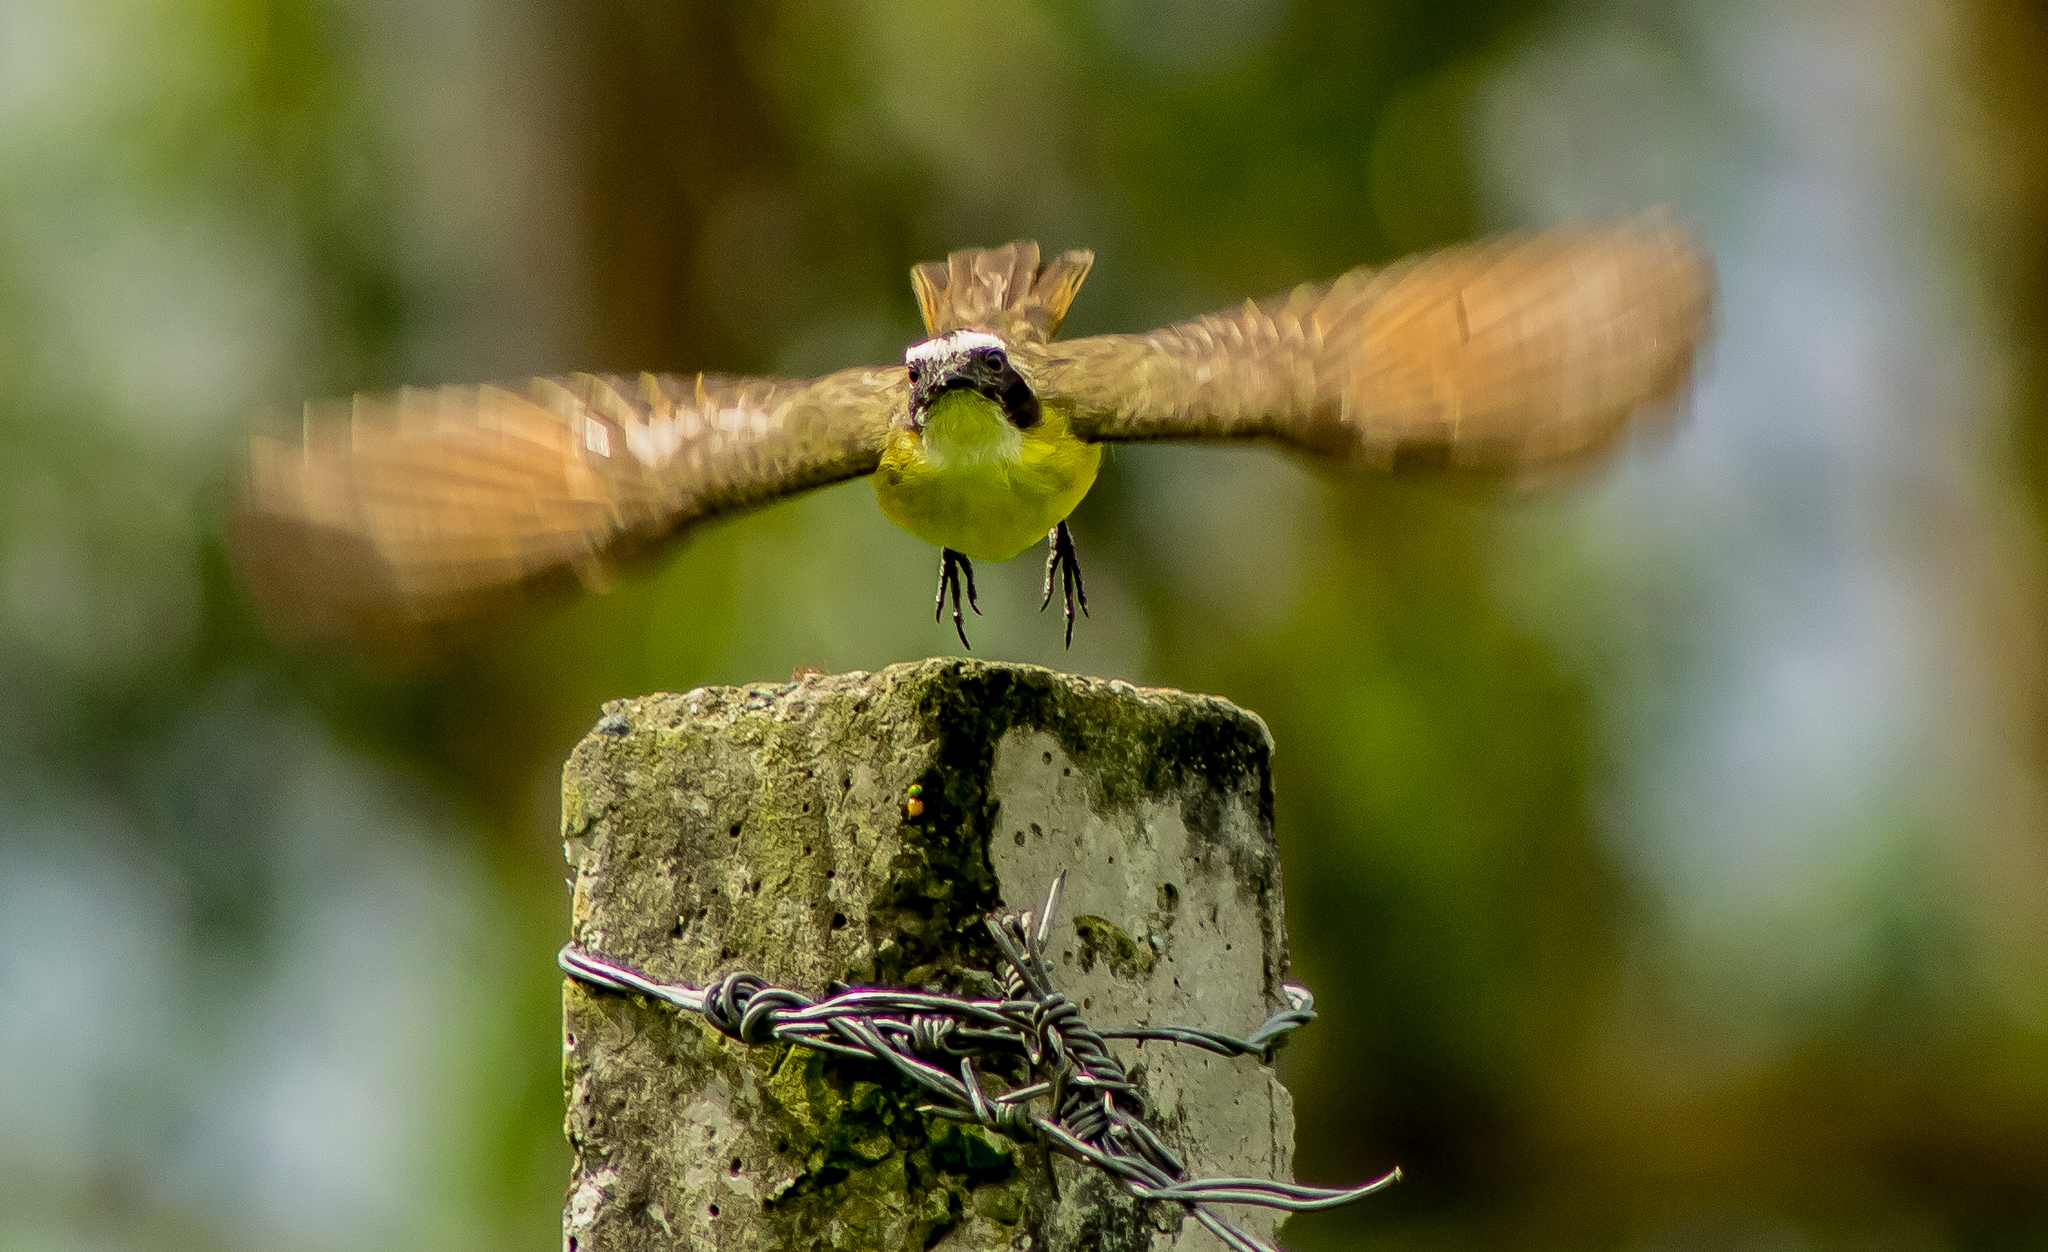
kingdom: Animalia
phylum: Chordata
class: Aves
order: Passeriformes
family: Tyrannidae
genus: Myiozetetes
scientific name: Myiozetetes cayanensis
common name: Rusty-margined flycatcher
